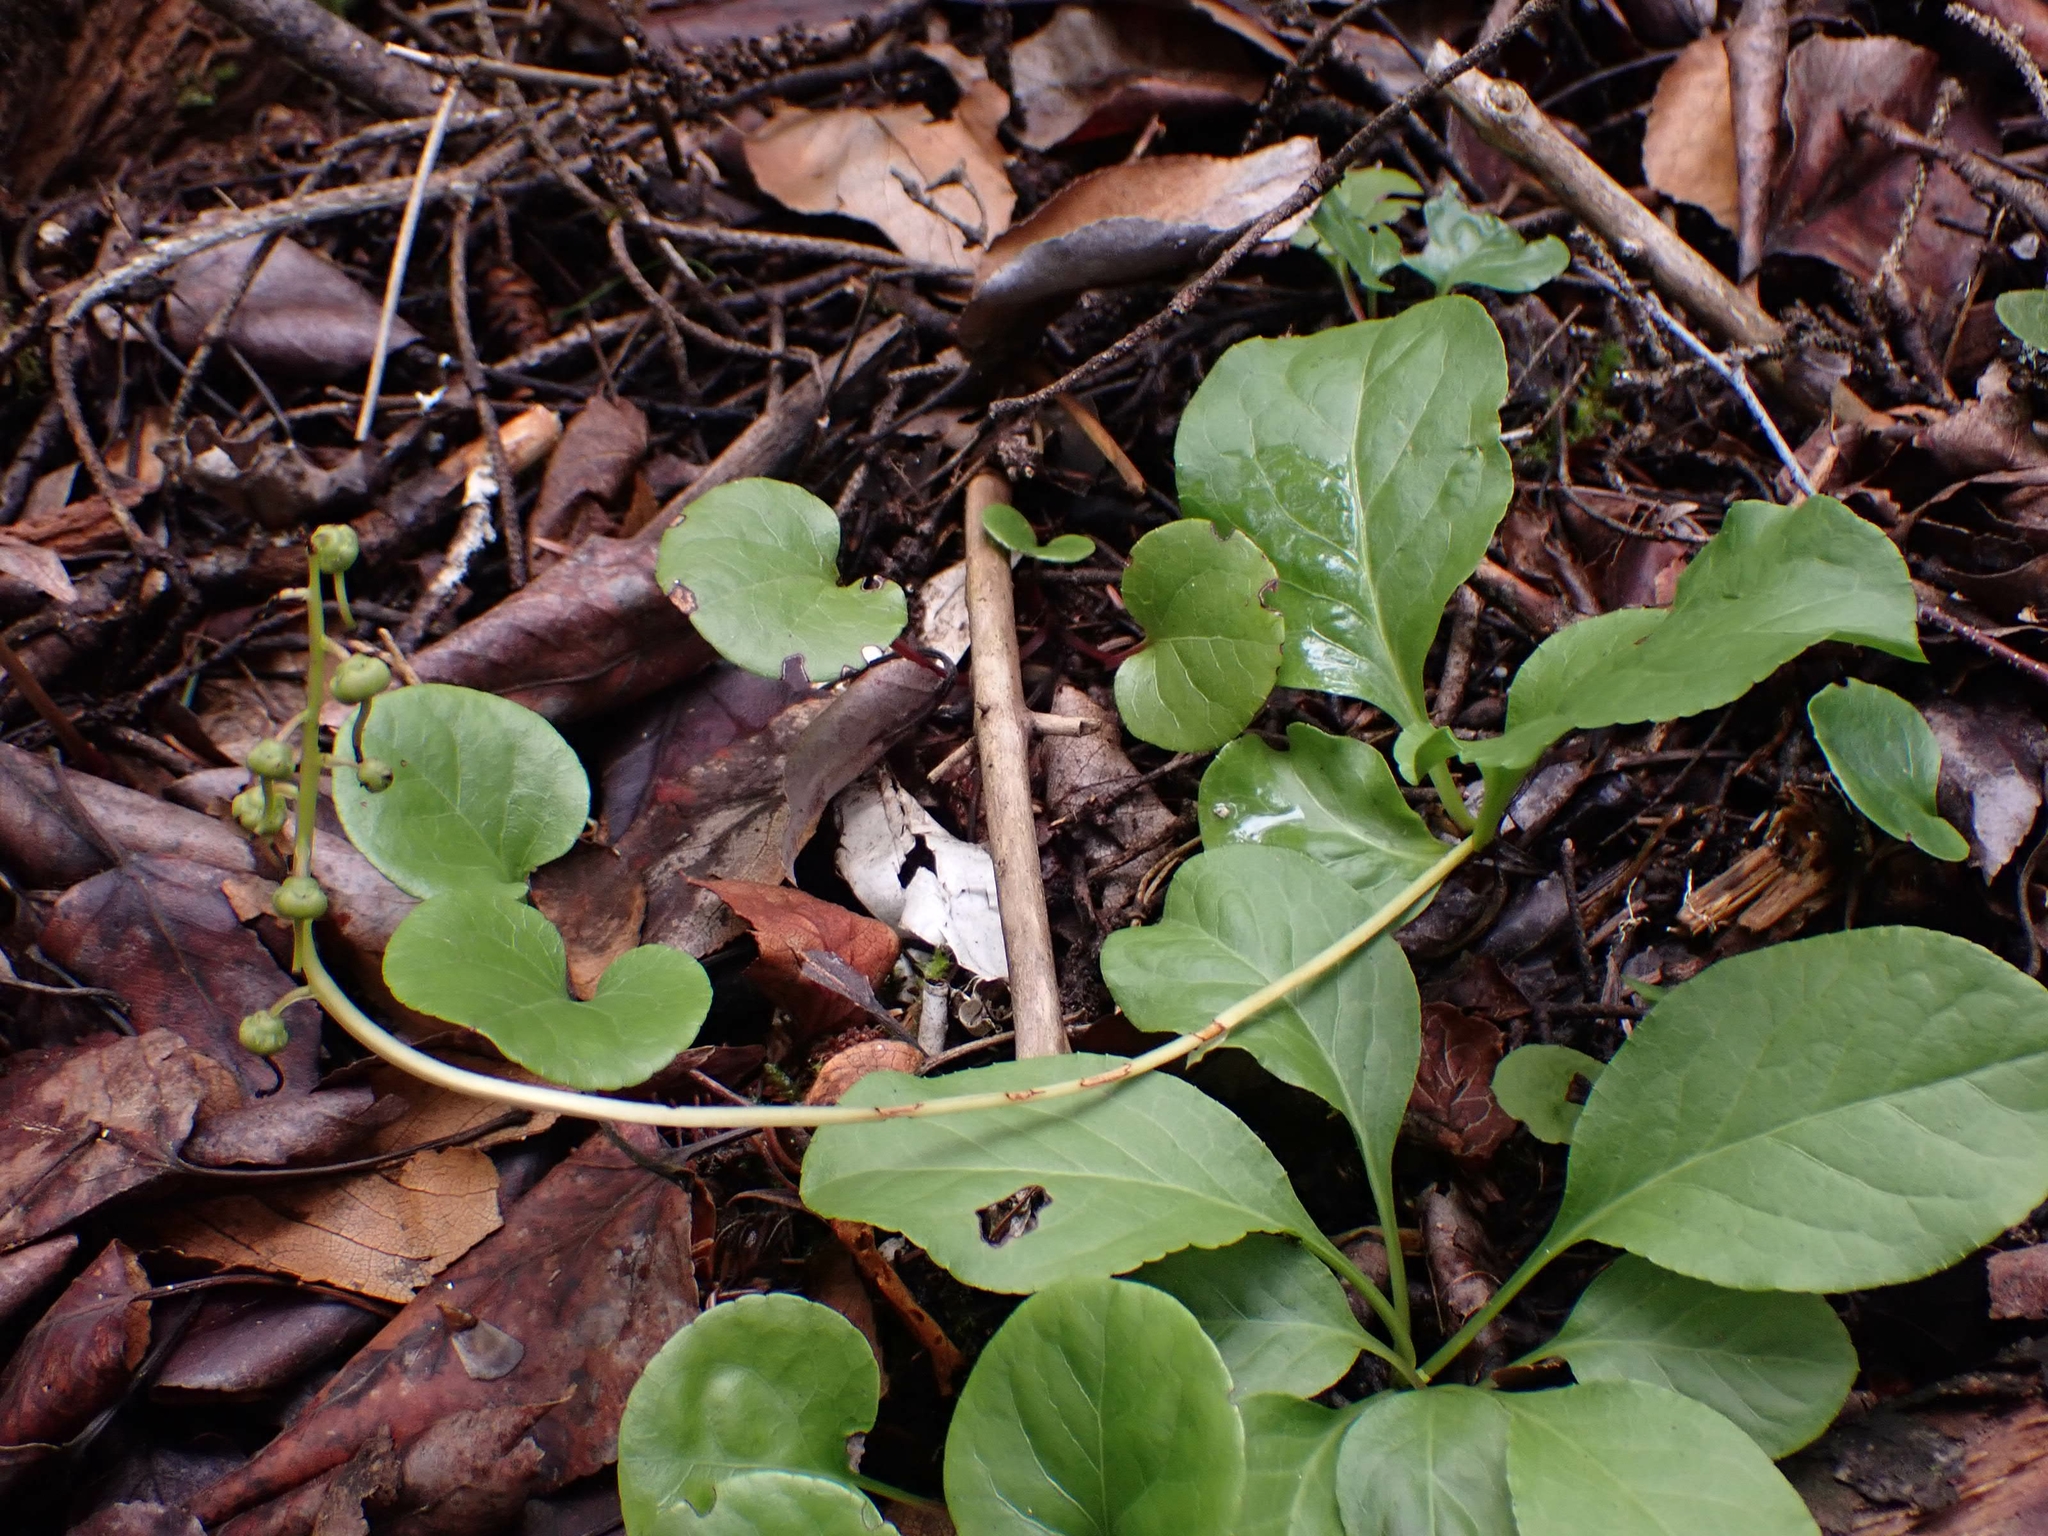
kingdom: Plantae
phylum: Tracheophyta
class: Magnoliopsida
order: Ericales
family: Ericaceae
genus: Pyrola
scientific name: Pyrola elliptica
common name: Shinleaf
